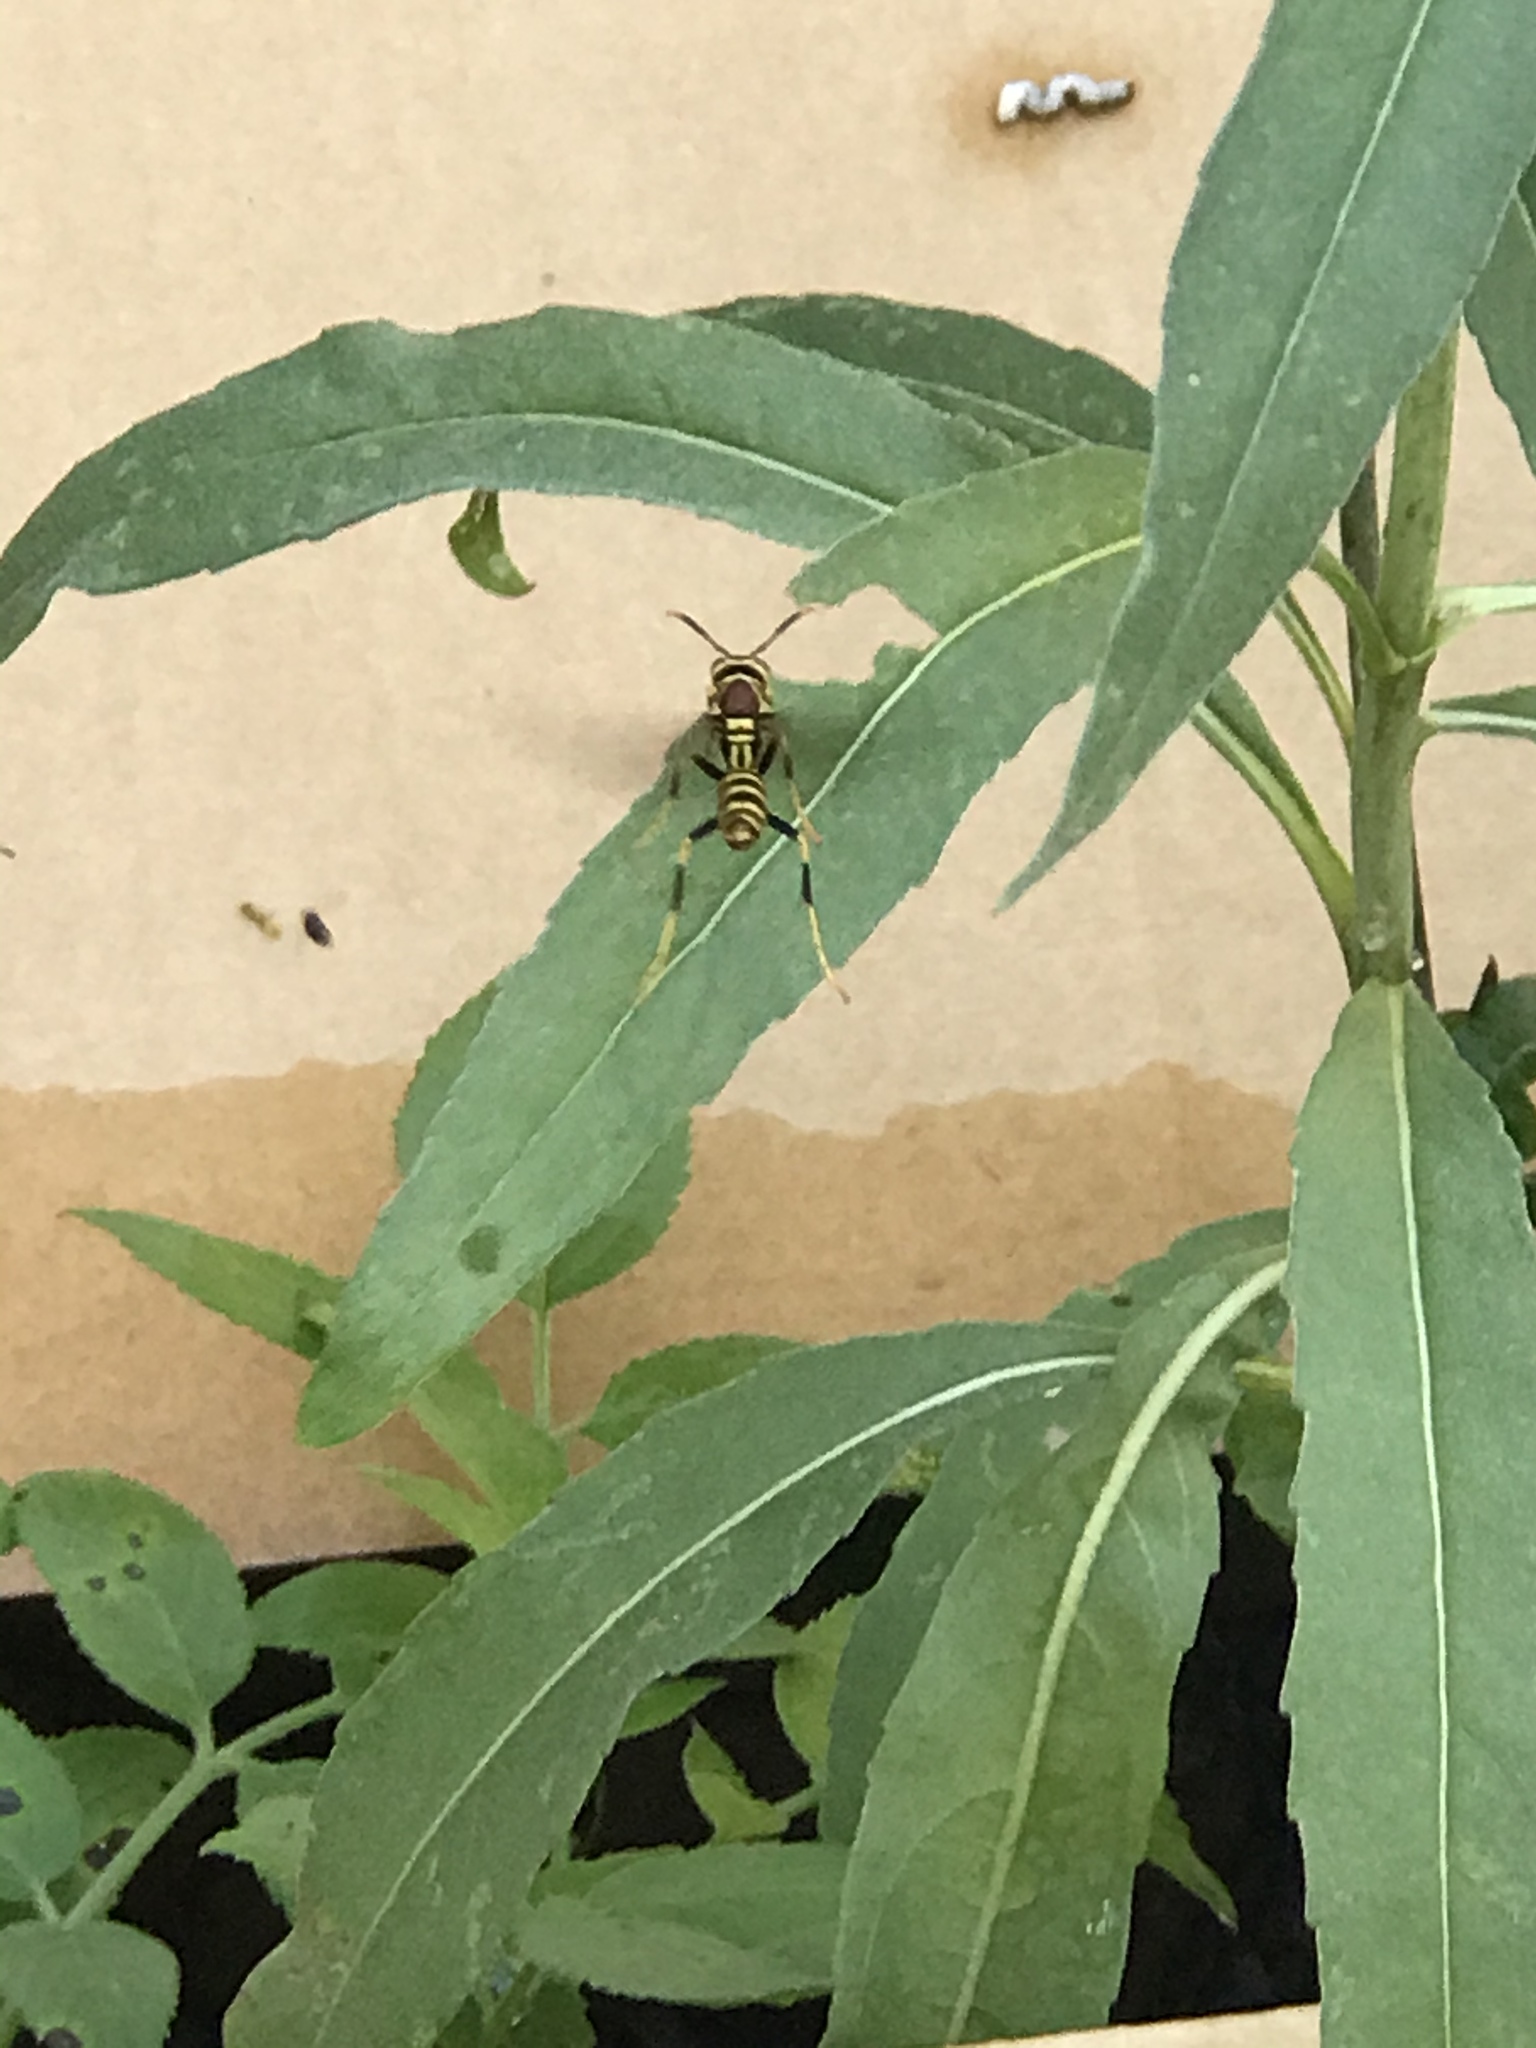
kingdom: Animalia
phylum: Arthropoda
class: Insecta
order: Hymenoptera
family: Eumenidae
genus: Polistes
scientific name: Polistes exclamans
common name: Paper wasp
